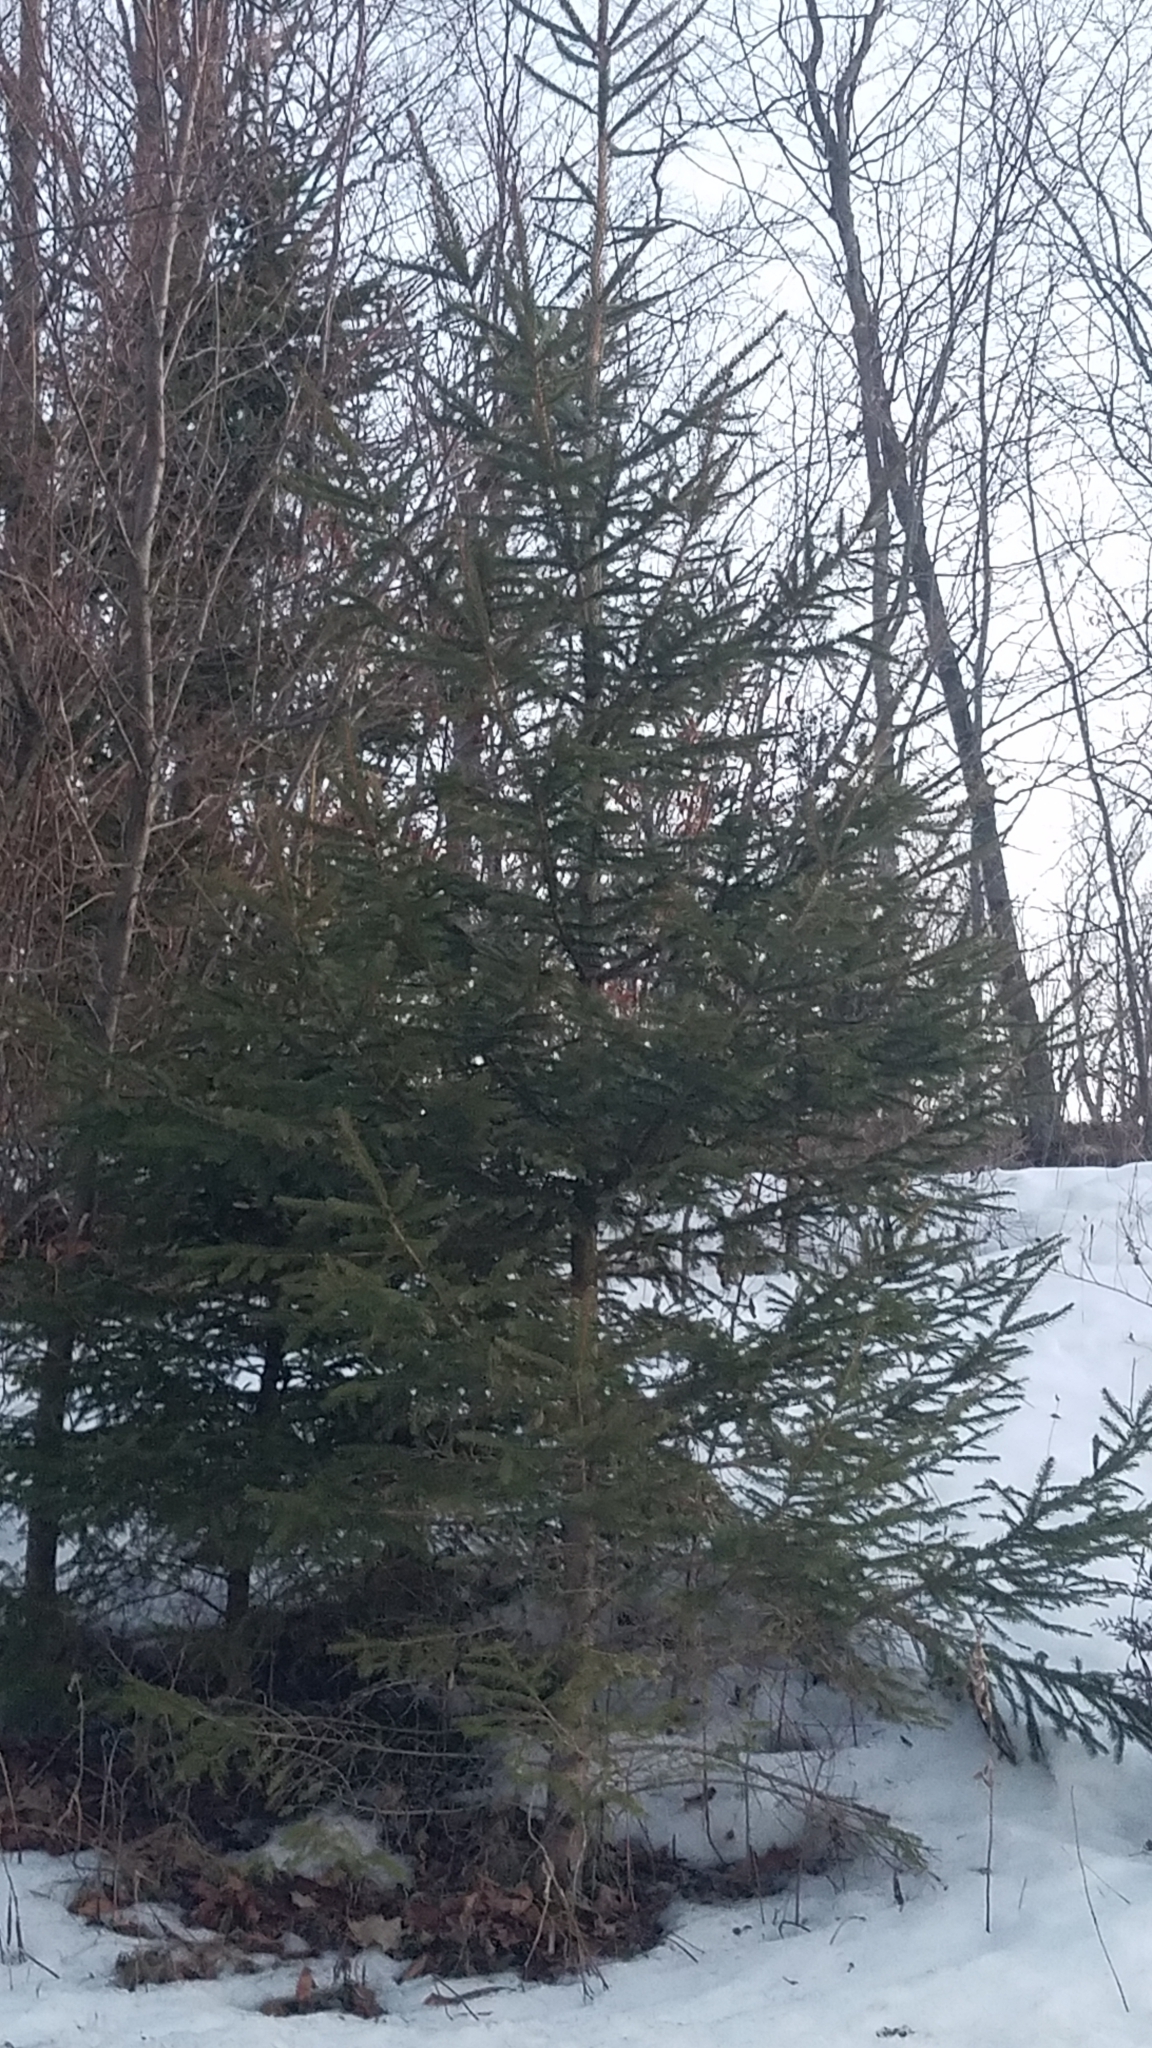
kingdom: Plantae
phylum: Tracheophyta
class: Pinopsida
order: Pinales
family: Pinaceae
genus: Picea
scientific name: Picea glauca
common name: White spruce
